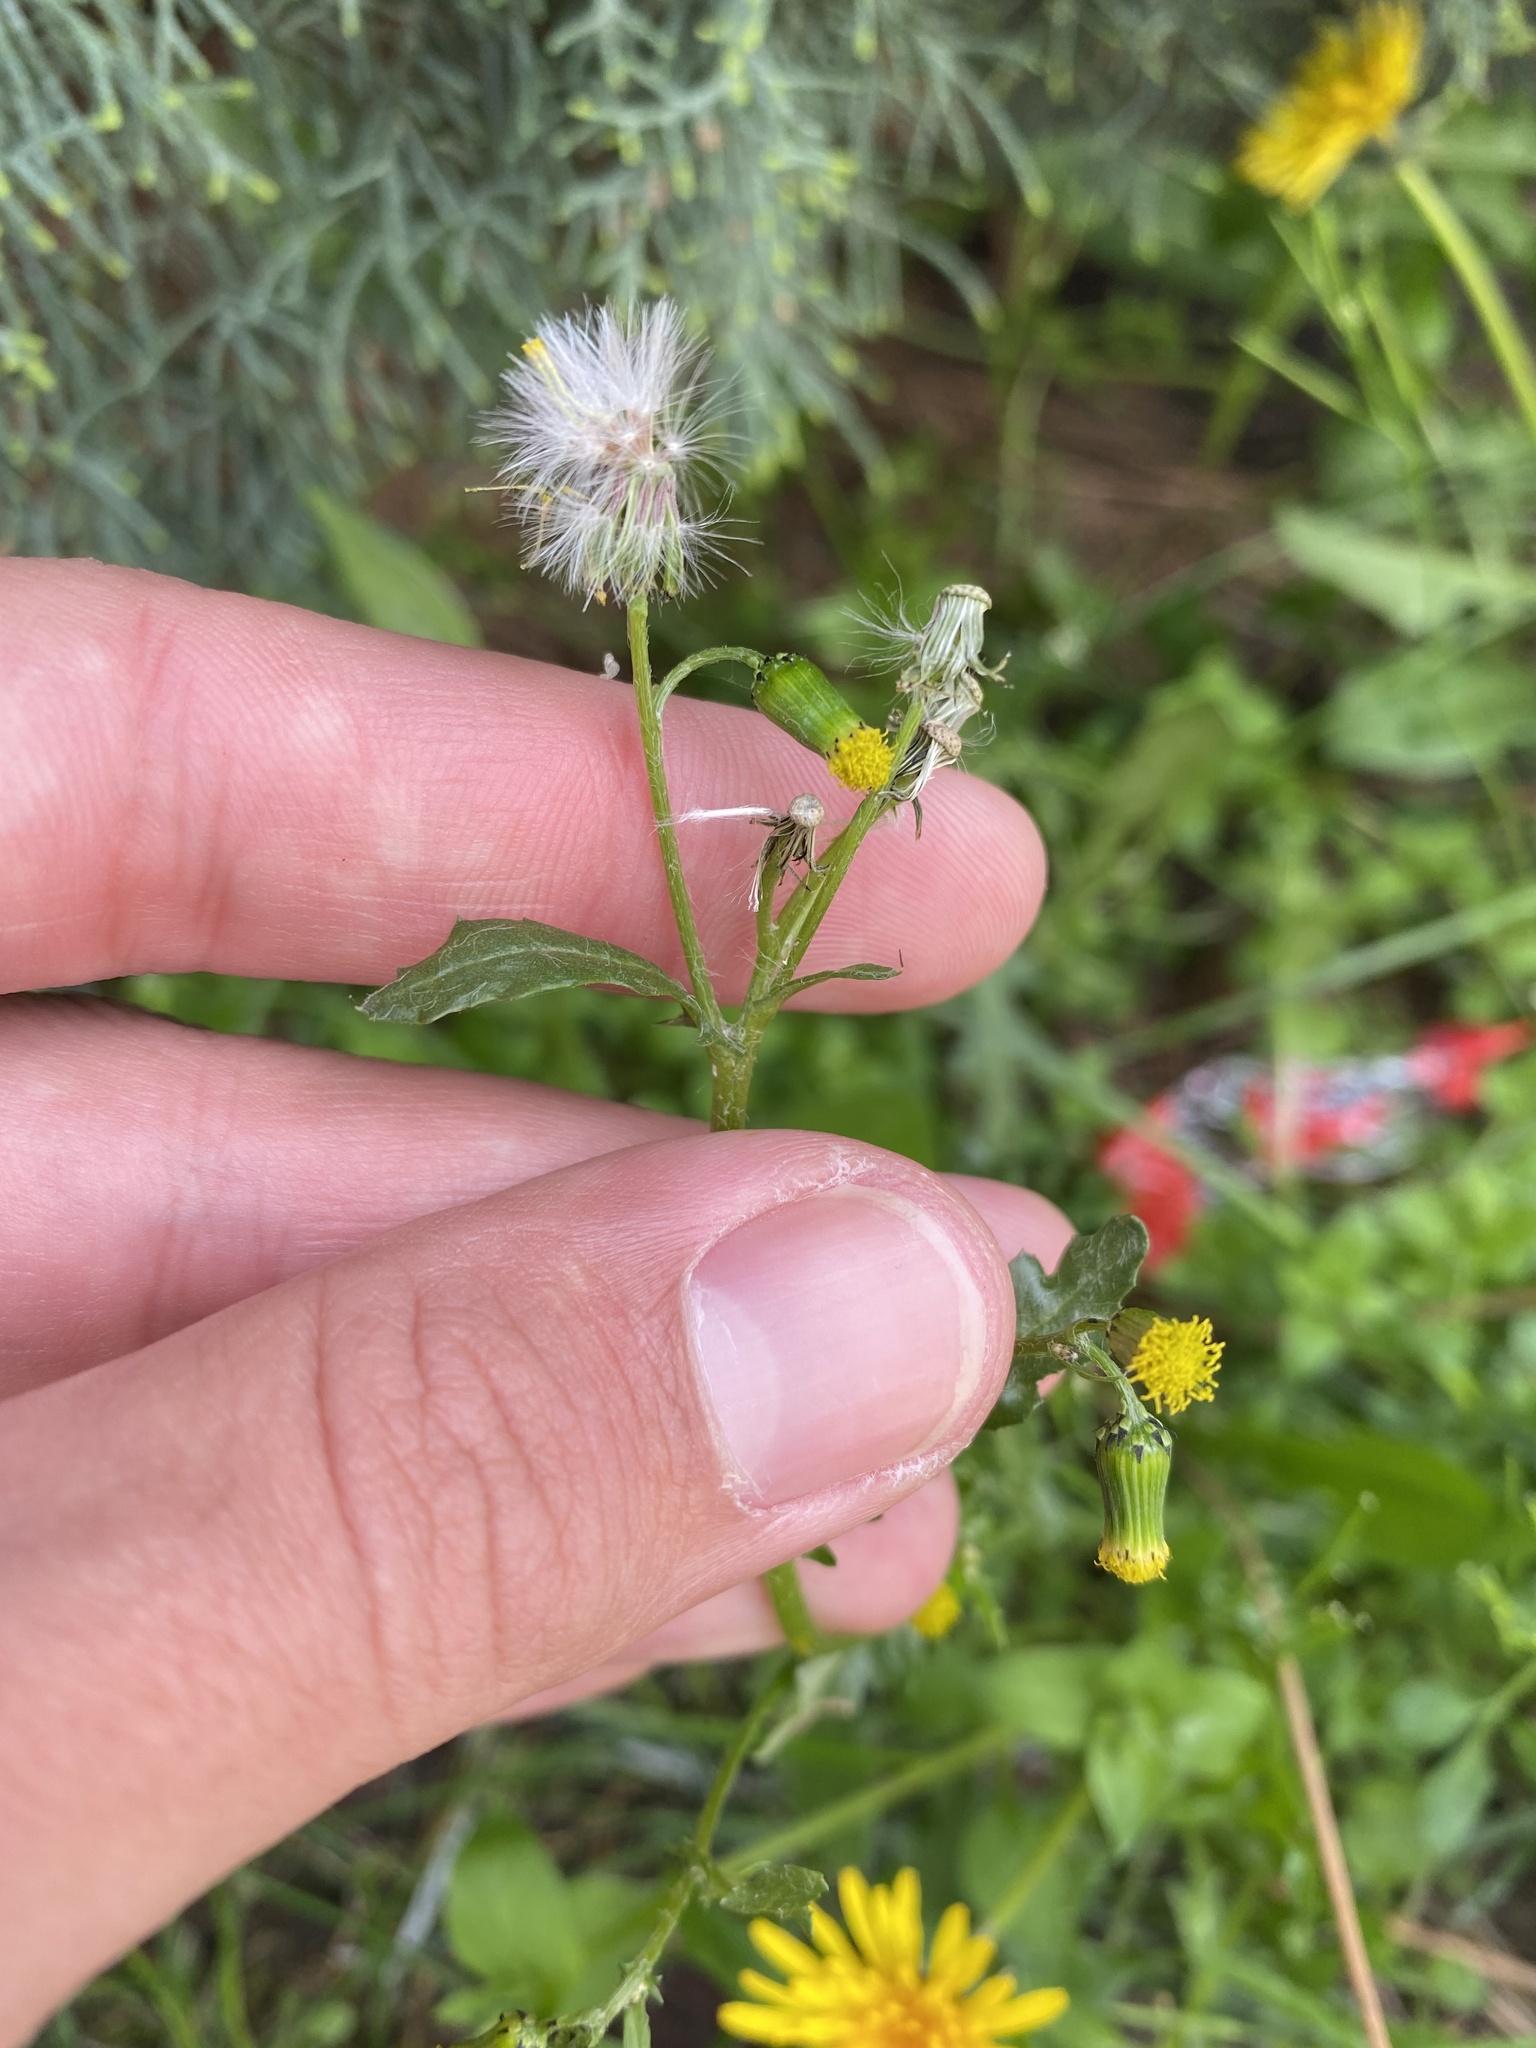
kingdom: Plantae
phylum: Tracheophyta
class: Magnoliopsida
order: Asterales
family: Asteraceae
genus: Senecio
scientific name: Senecio vulgaris
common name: Old-man-in-the-spring
